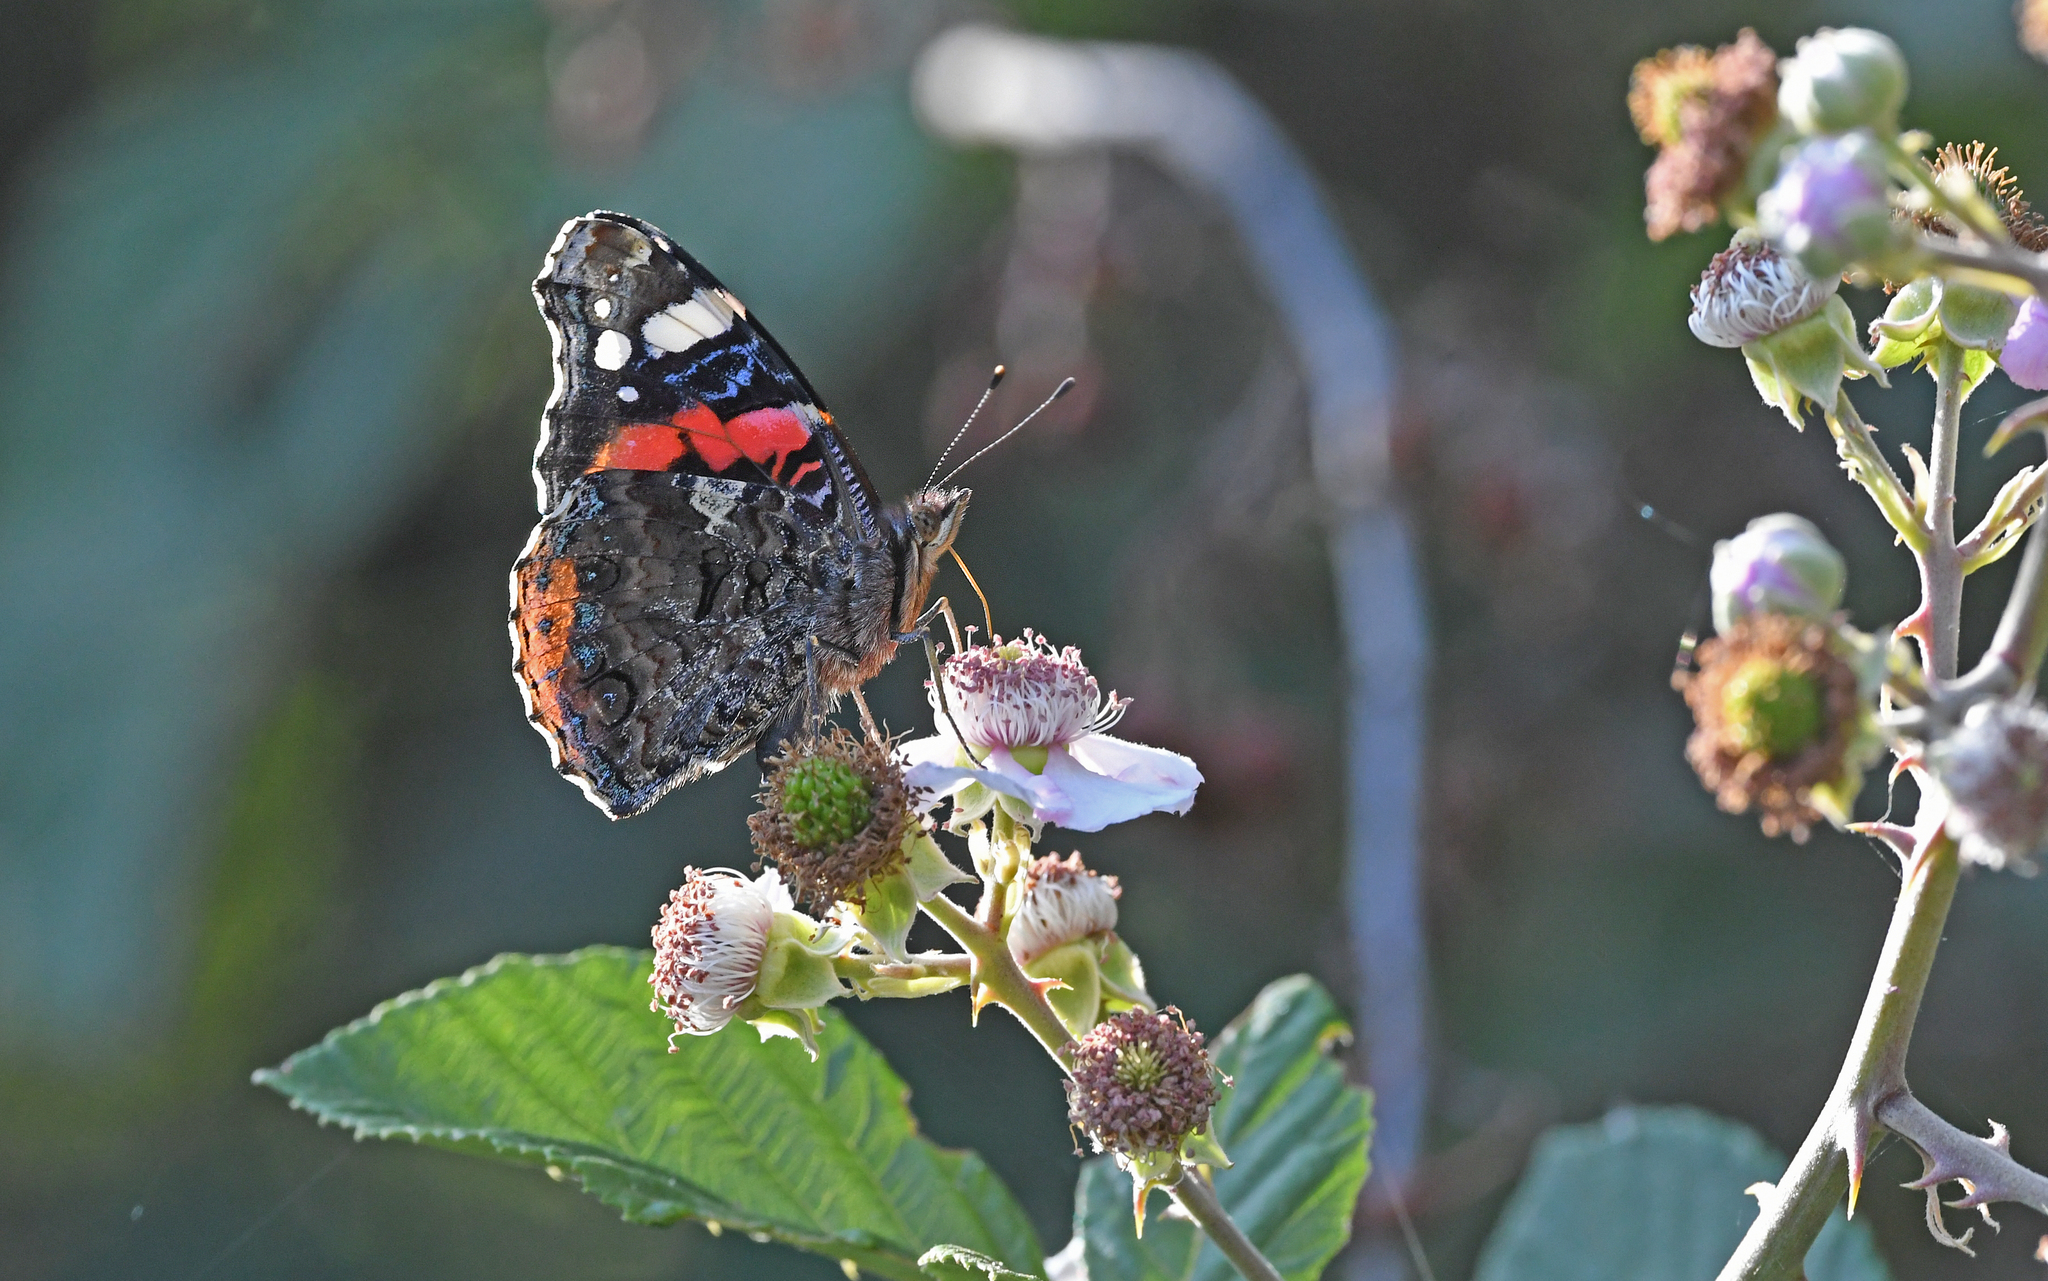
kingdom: Animalia
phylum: Arthropoda
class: Insecta
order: Lepidoptera
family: Nymphalidae
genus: Vanessa
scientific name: Vanessa atalanta
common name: Red admiral
